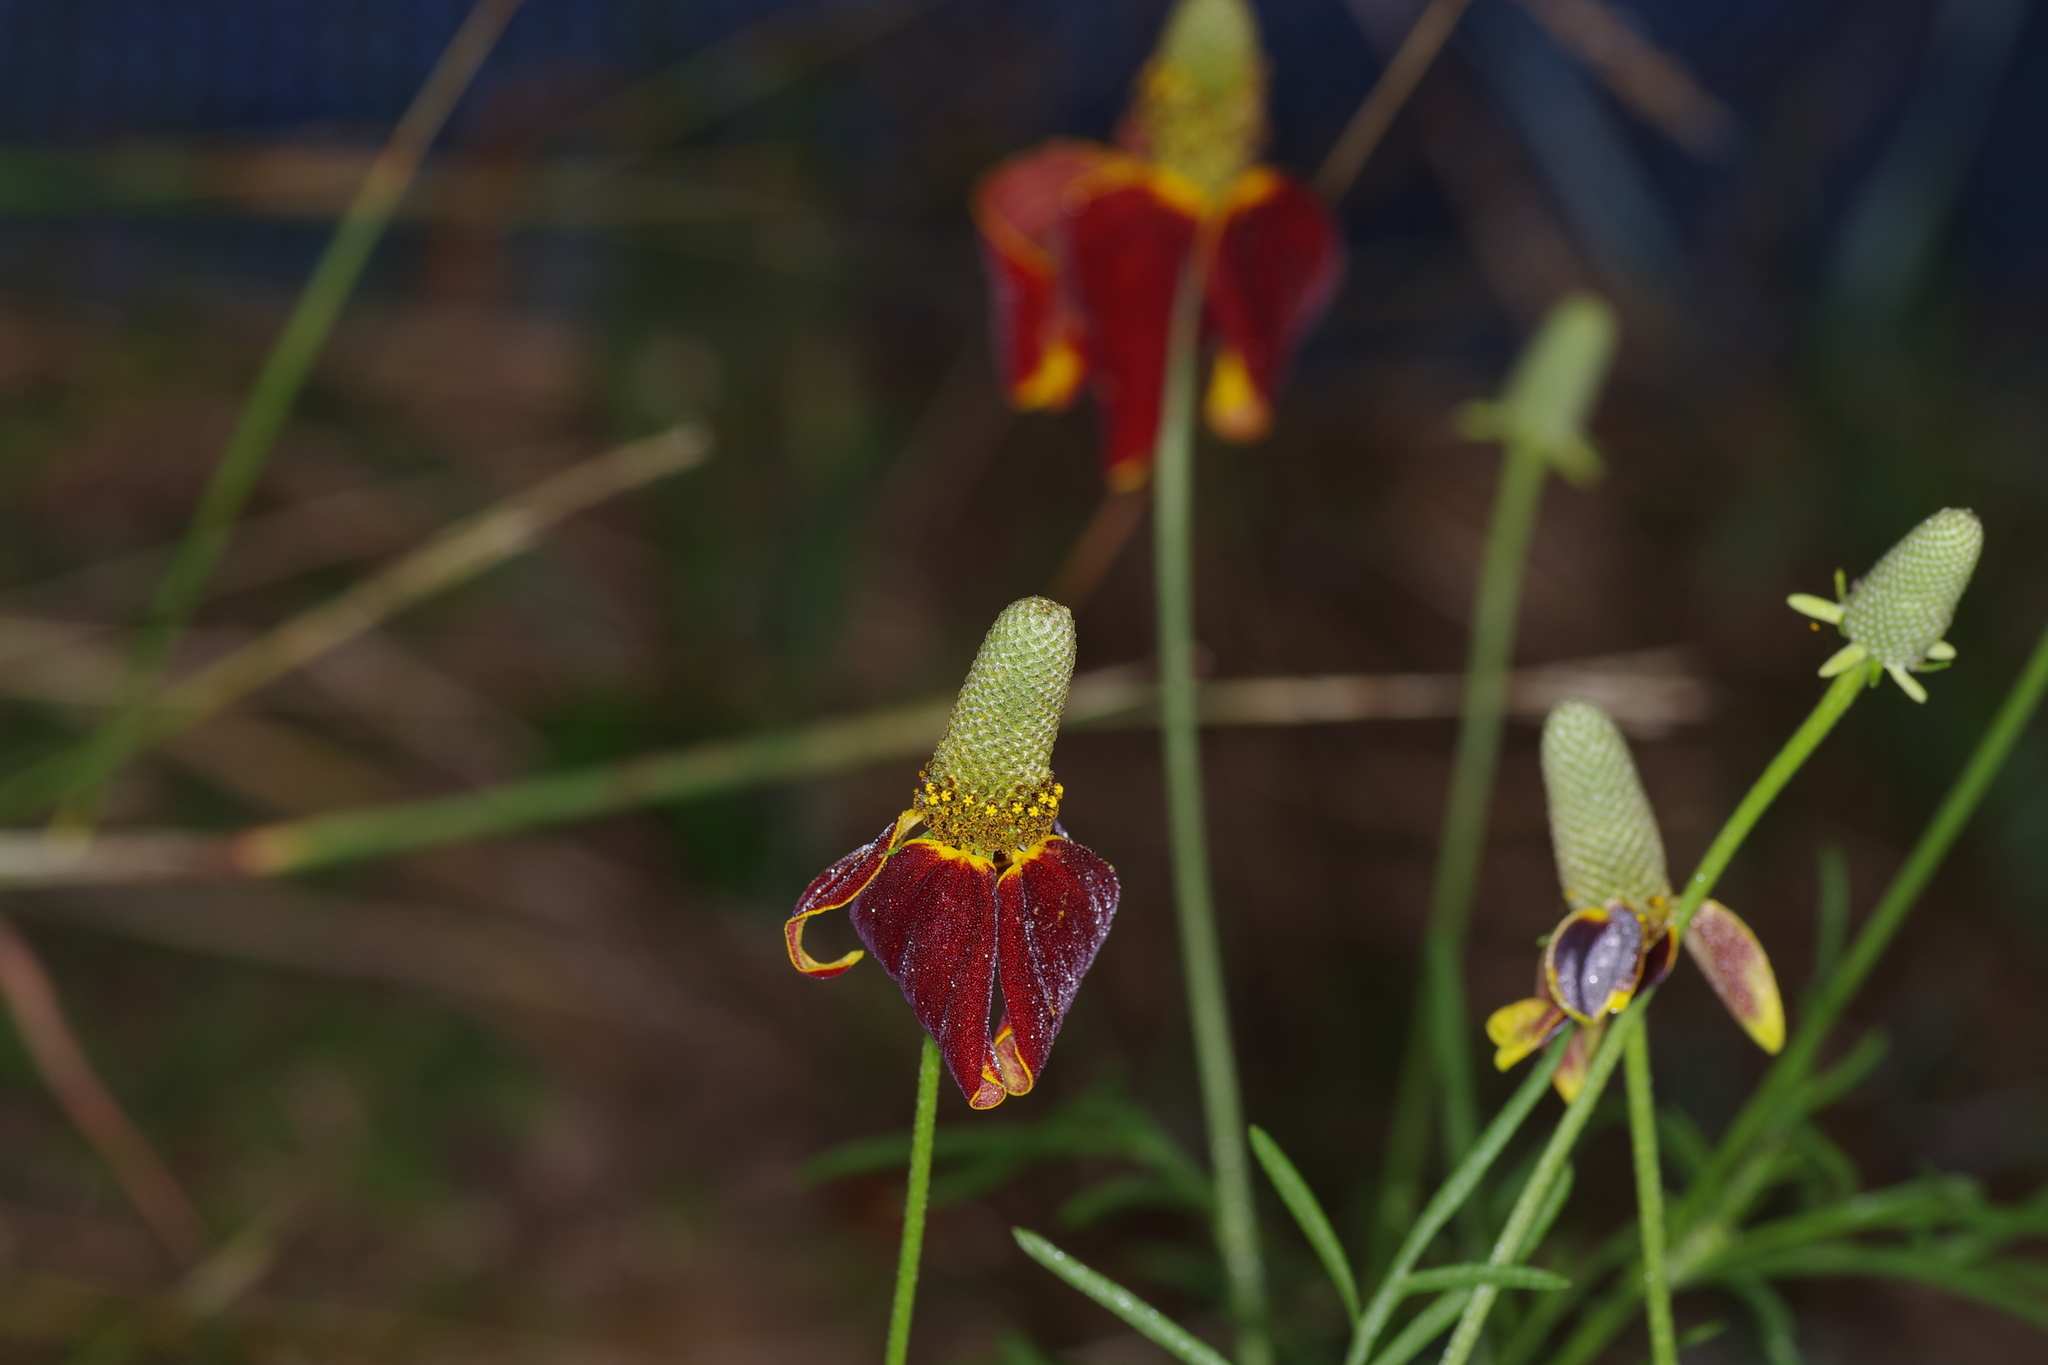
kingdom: Plantae
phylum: Tracheophyta
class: Magnoliopsida
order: Asterales
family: Asteraceae
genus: Ratibida
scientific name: Ratibida columnifera
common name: Prairie coneflower
